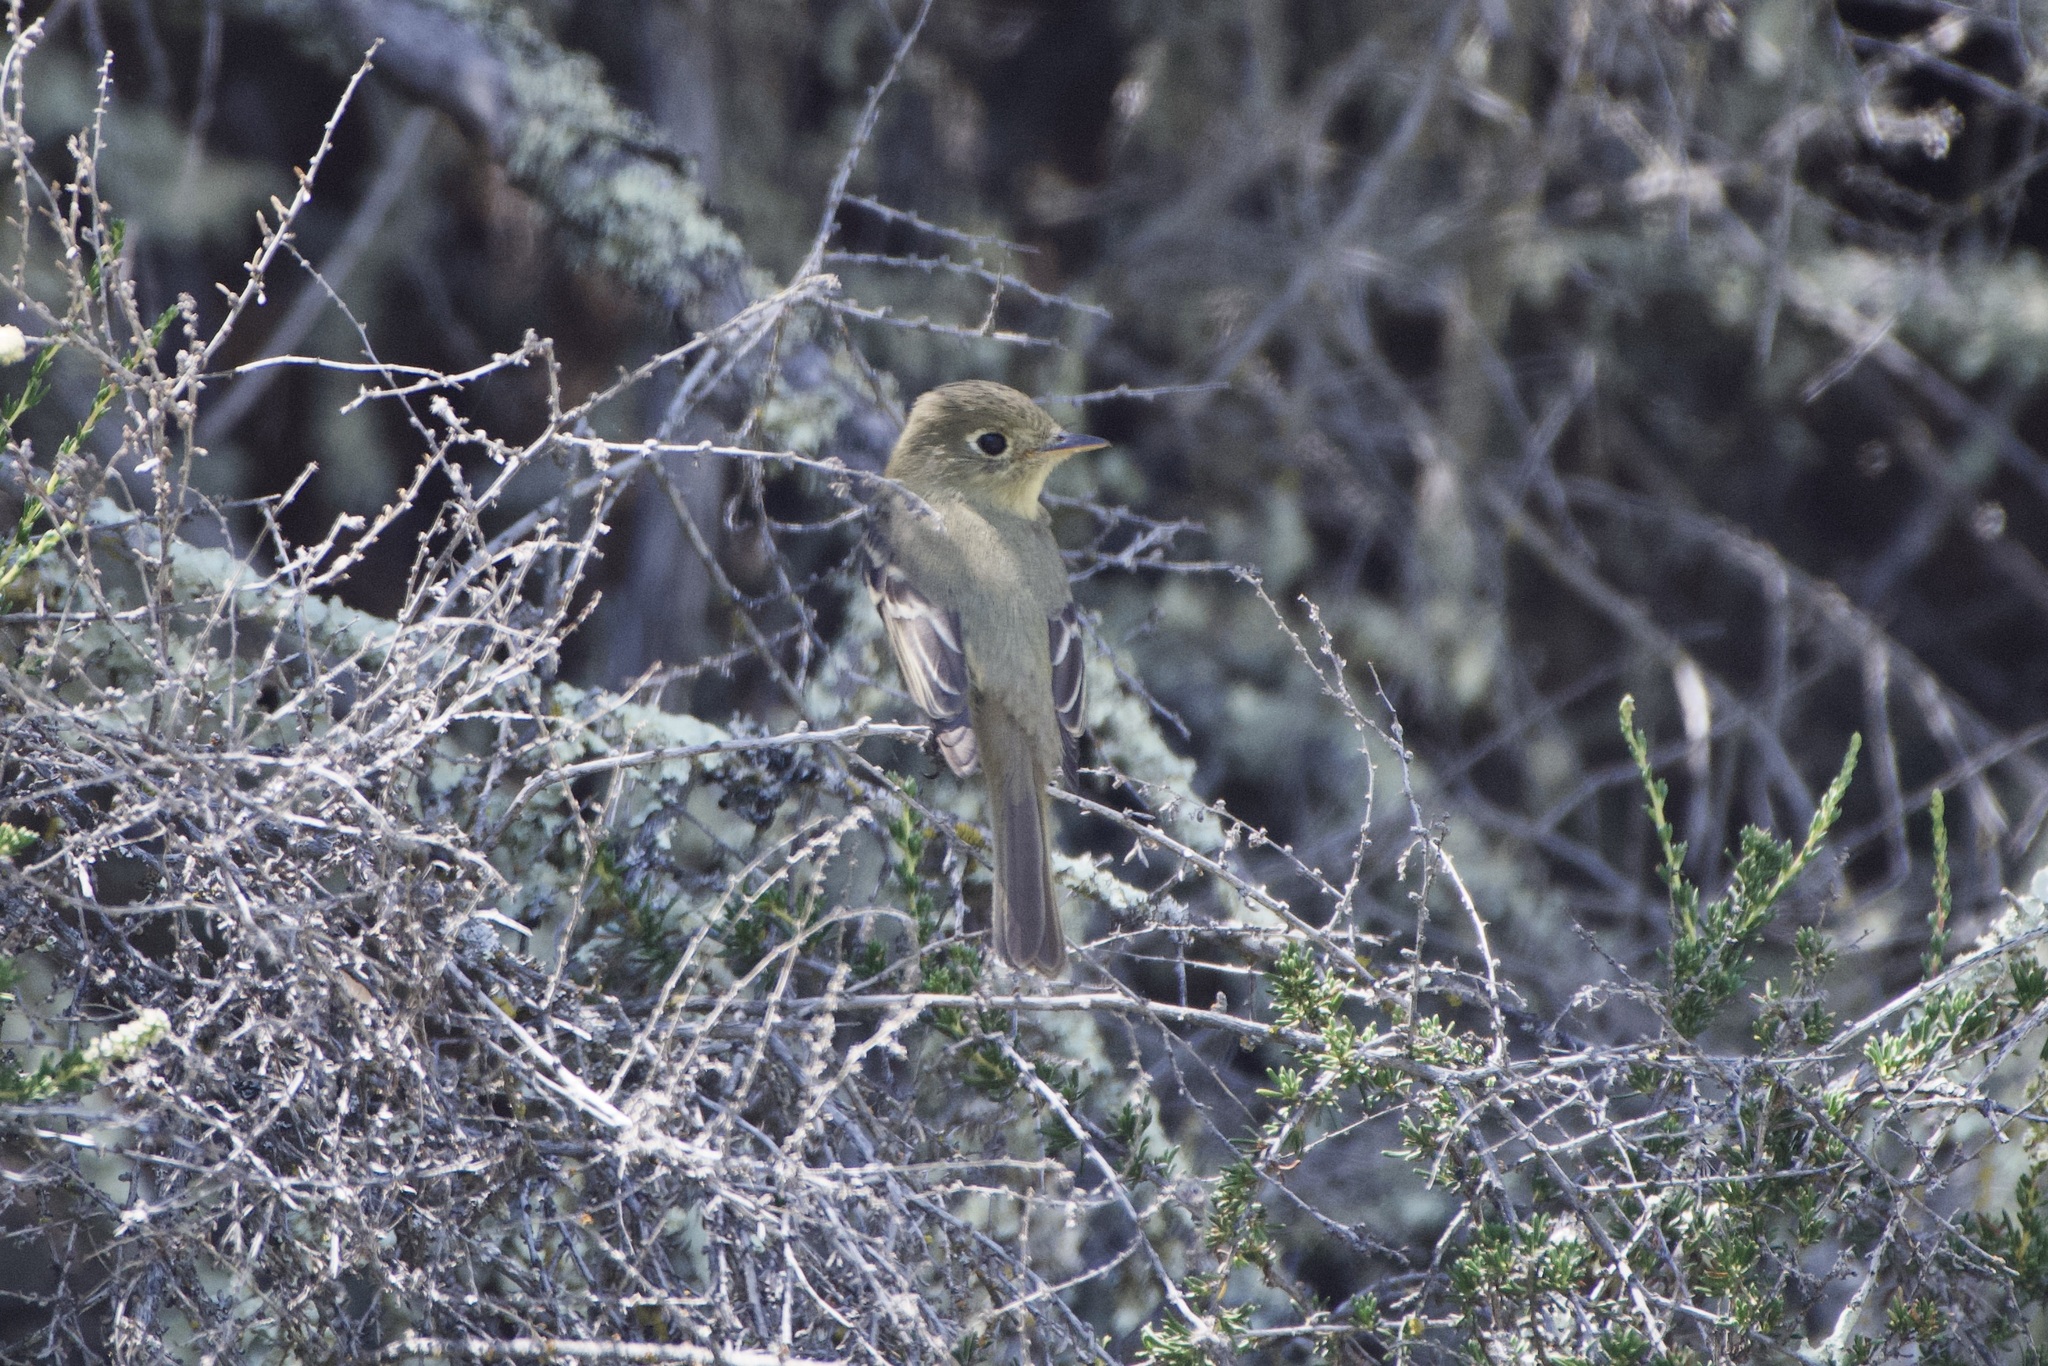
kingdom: Animalia
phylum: Chordata
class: Aves
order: Passeriformes
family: Tyrannidae
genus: Empidonax
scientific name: Empidonax difficilis
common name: Pacific-slope flycatcher
